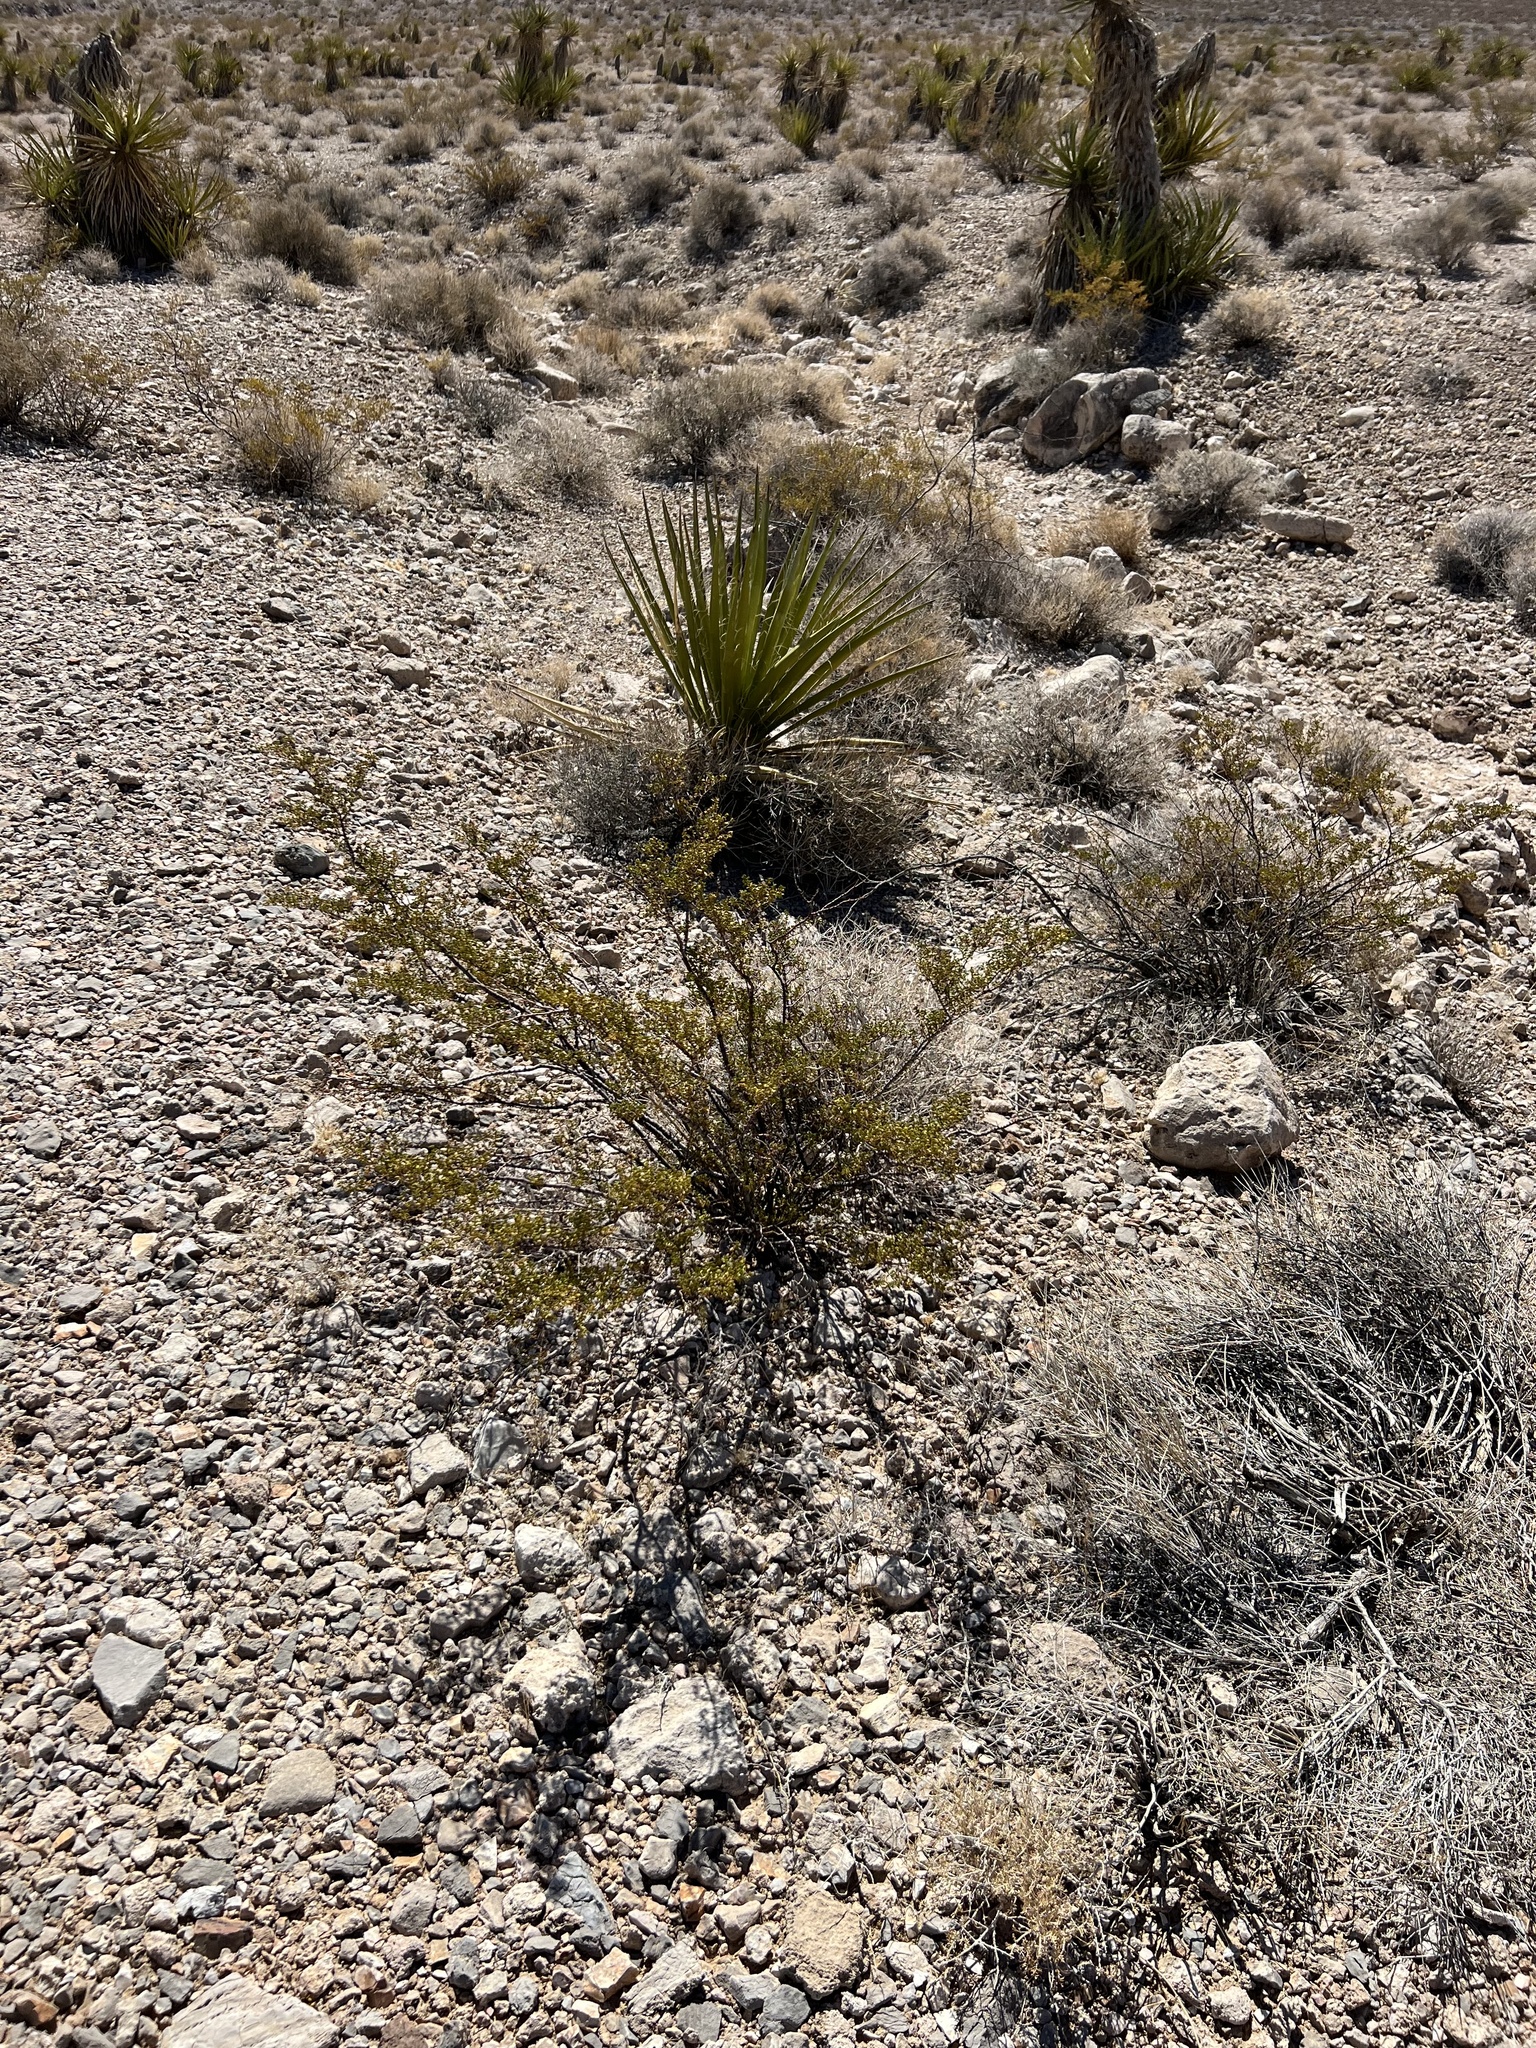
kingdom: Plantae
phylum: Tracheophyta
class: Magnoliopsida
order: Zygophyllales
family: Zygophyllaceae
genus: Larrea
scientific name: Larrea tridentata
